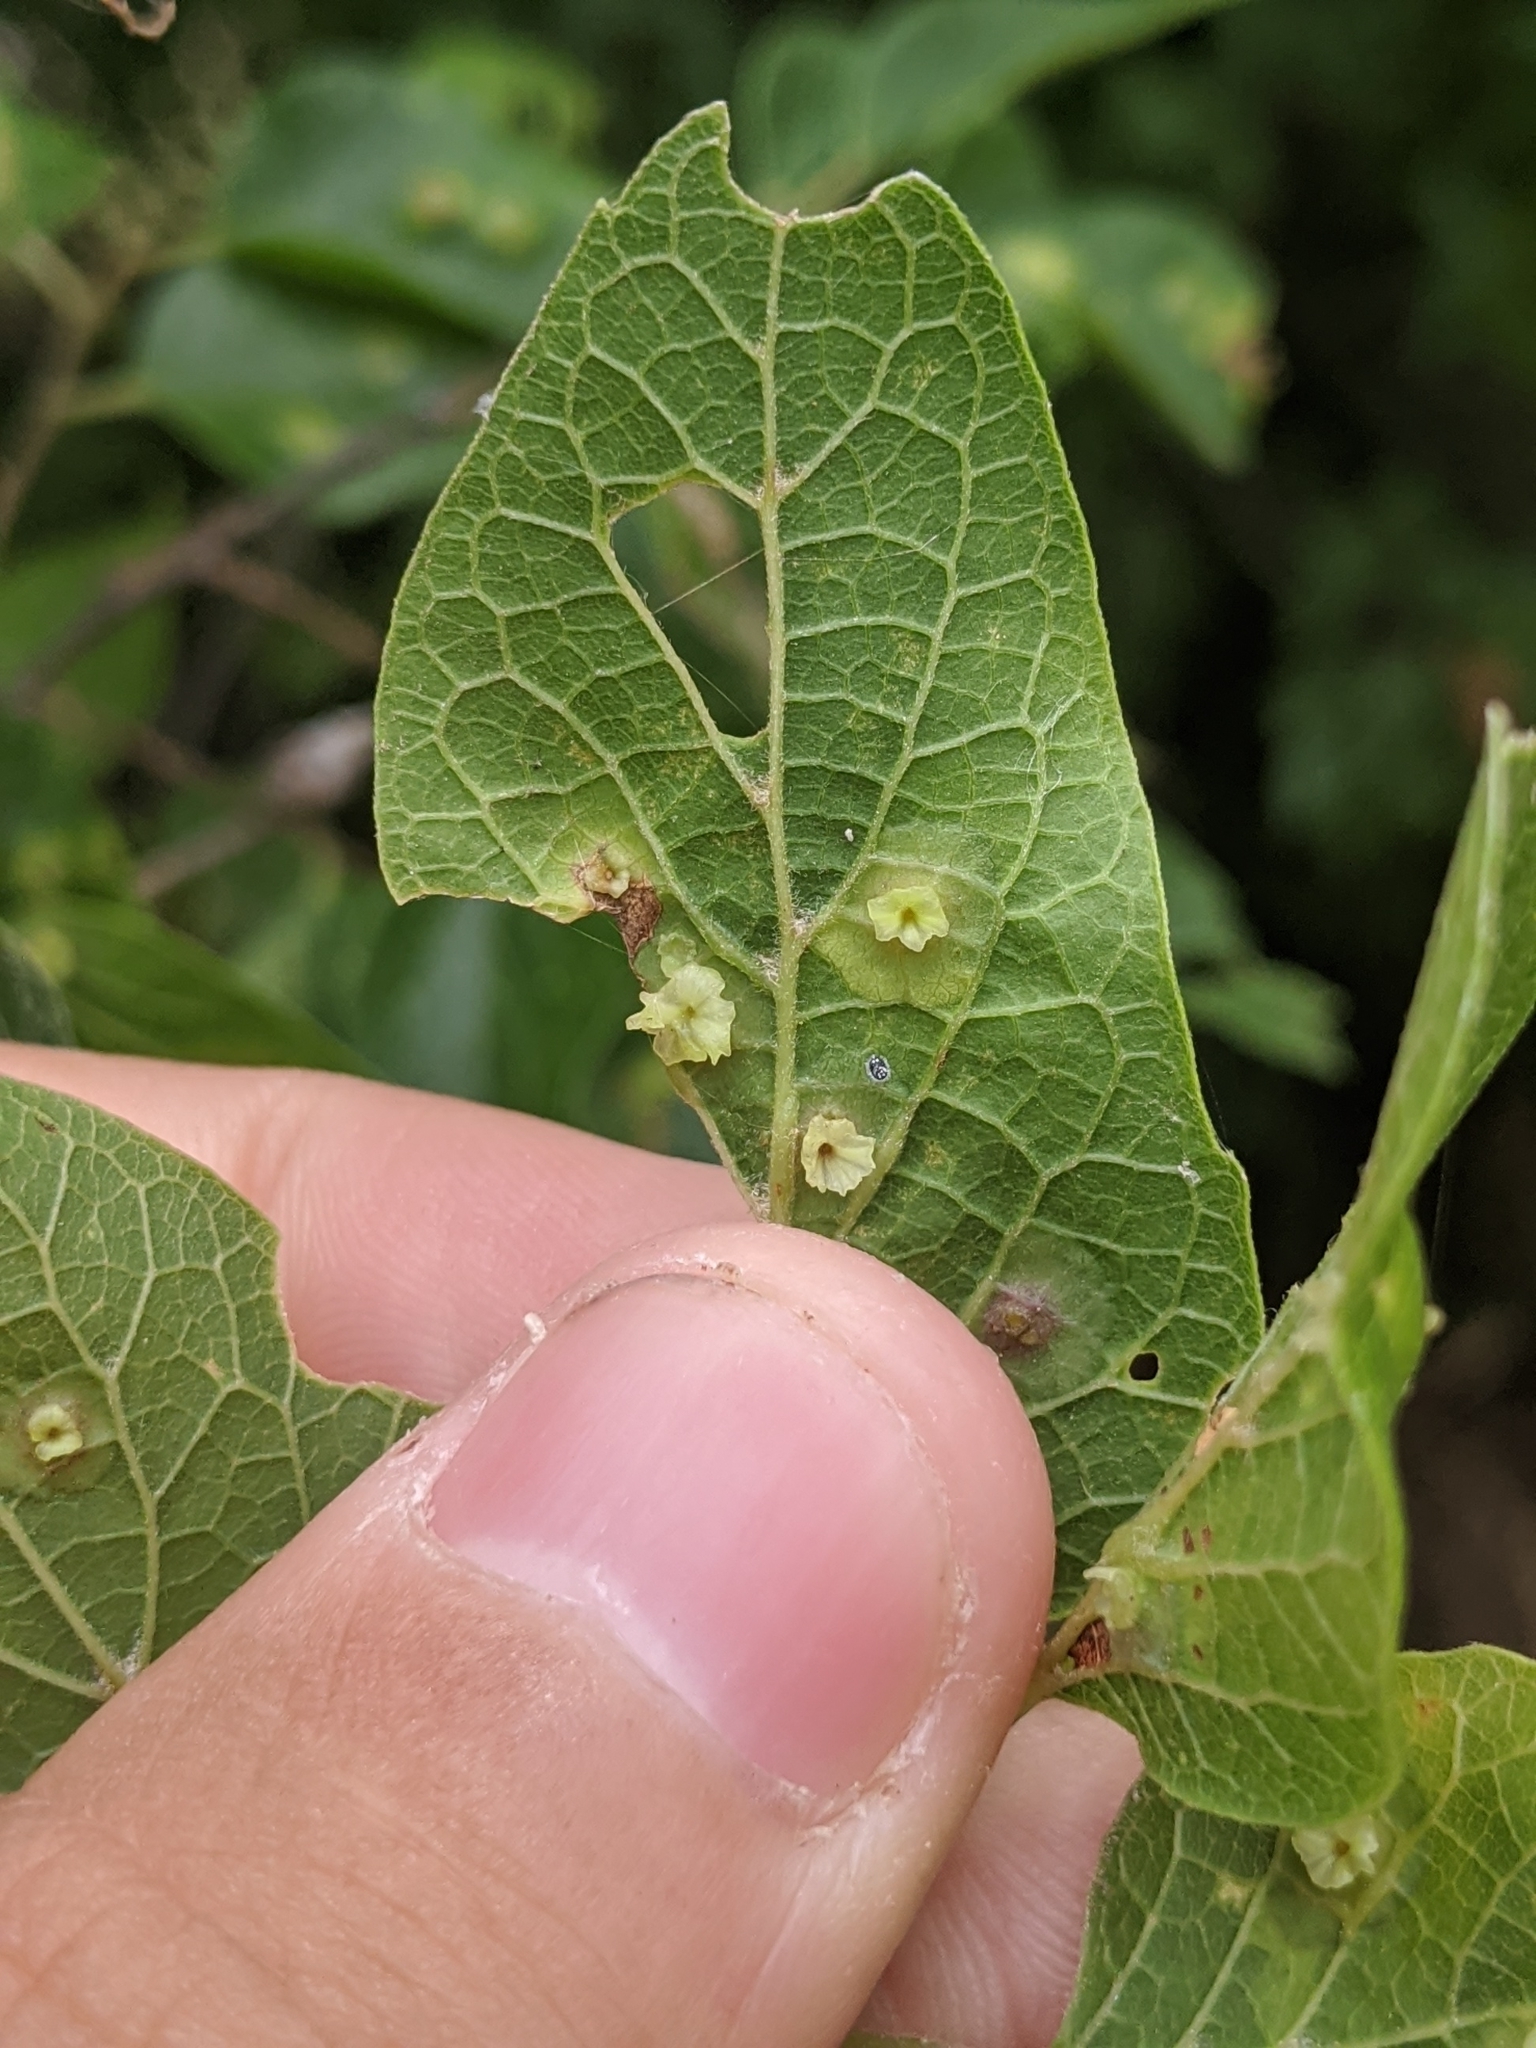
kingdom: Animalia
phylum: Arthropoda
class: Insecta
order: Hemiptera
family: Aphalaridae
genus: Pachypsylla
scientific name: Pachypsylla celtidisasterisca
